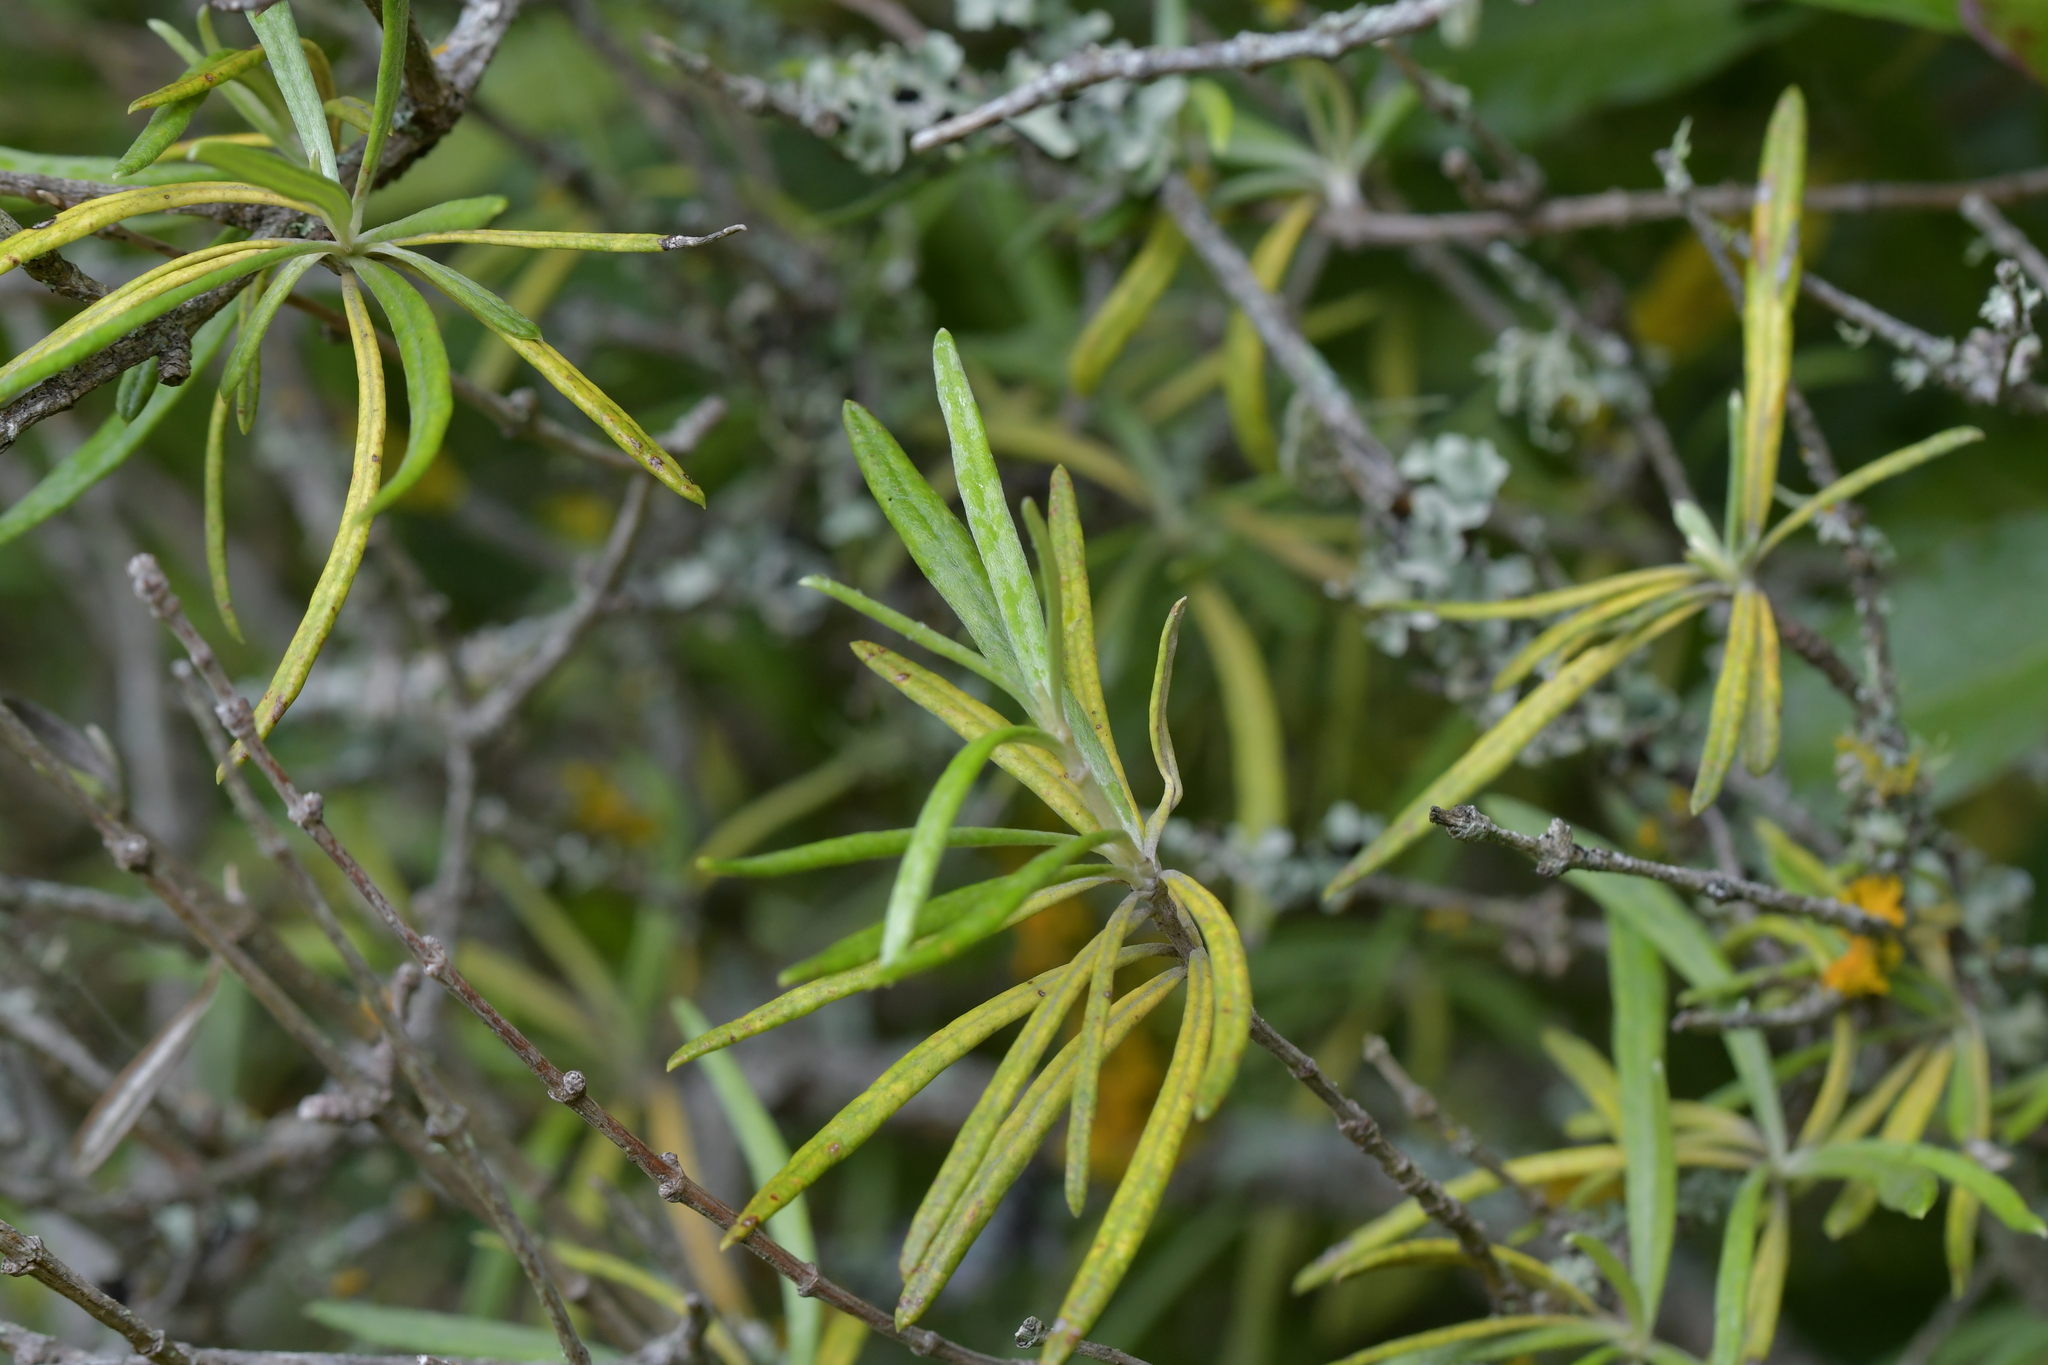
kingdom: Plantae
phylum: Tracheophyta
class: Magnoliopsida
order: Asterales
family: Asteraceae
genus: Olearia
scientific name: Olearia lineata
